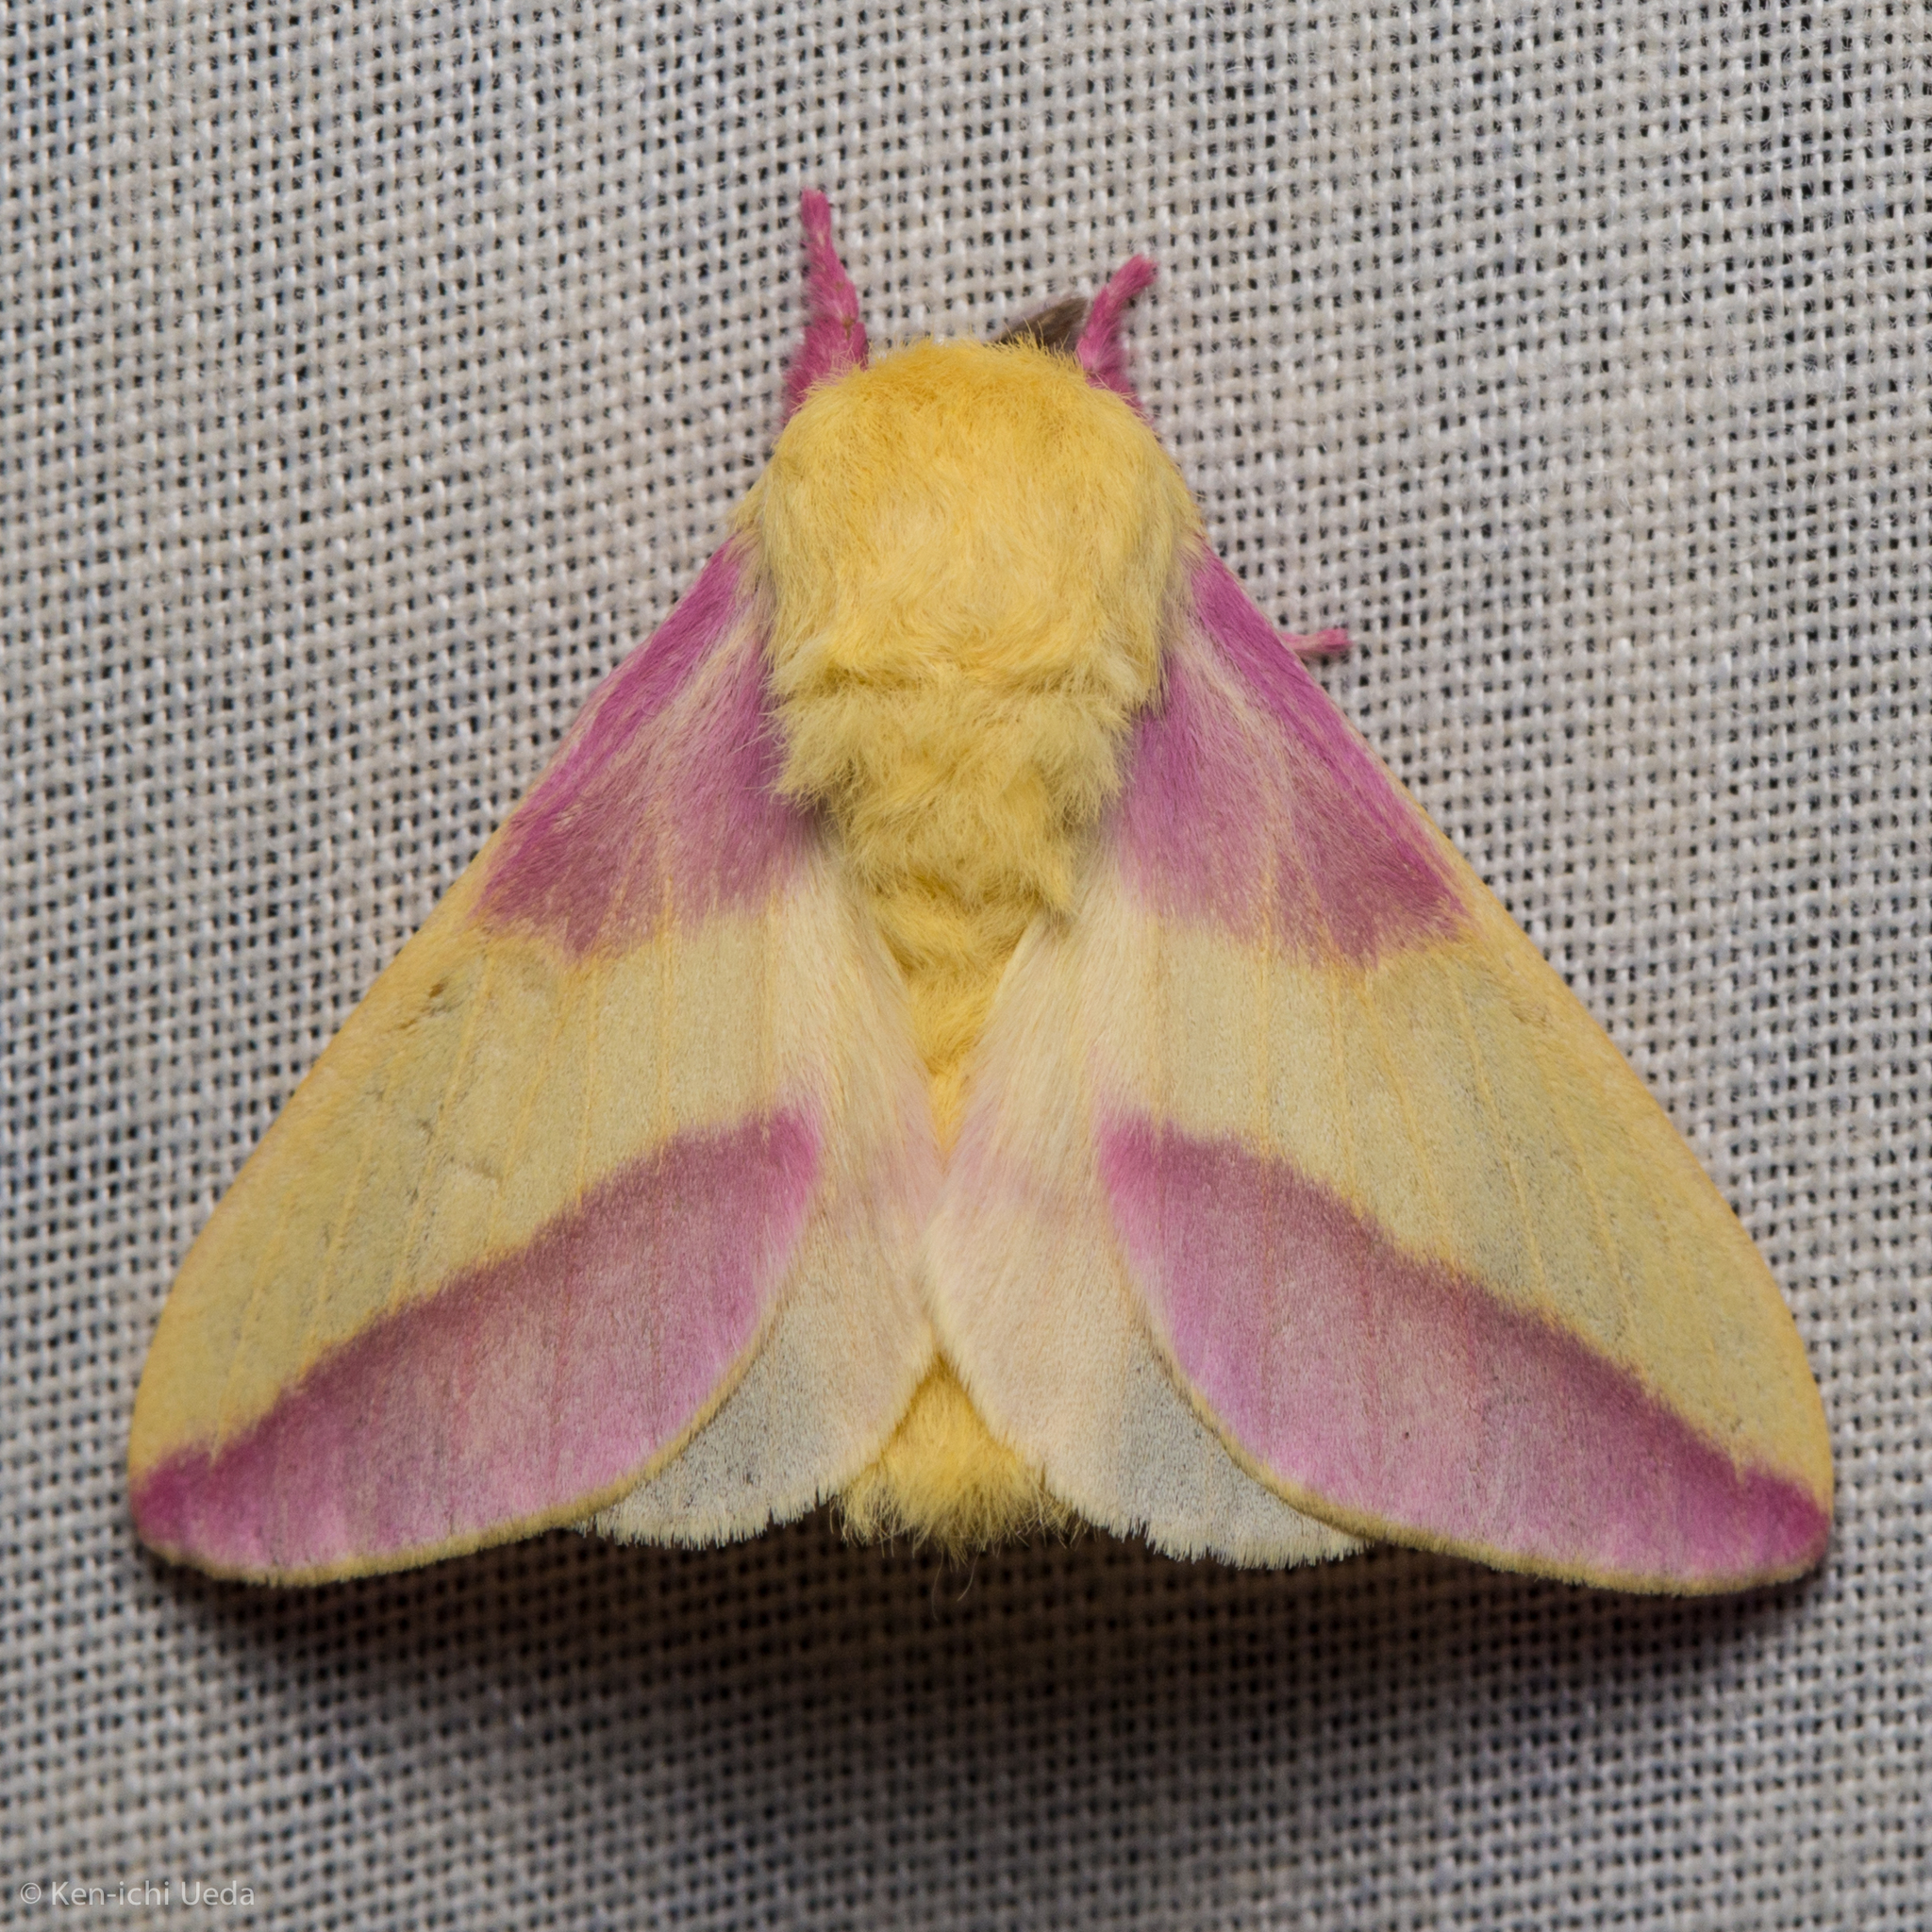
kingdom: Animalia
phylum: Arthropoda
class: Insecta
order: Lepidoptera
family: Saturniidae
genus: Dryocampa
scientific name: Dryocampa rubicunda
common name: Rosy maple moth
